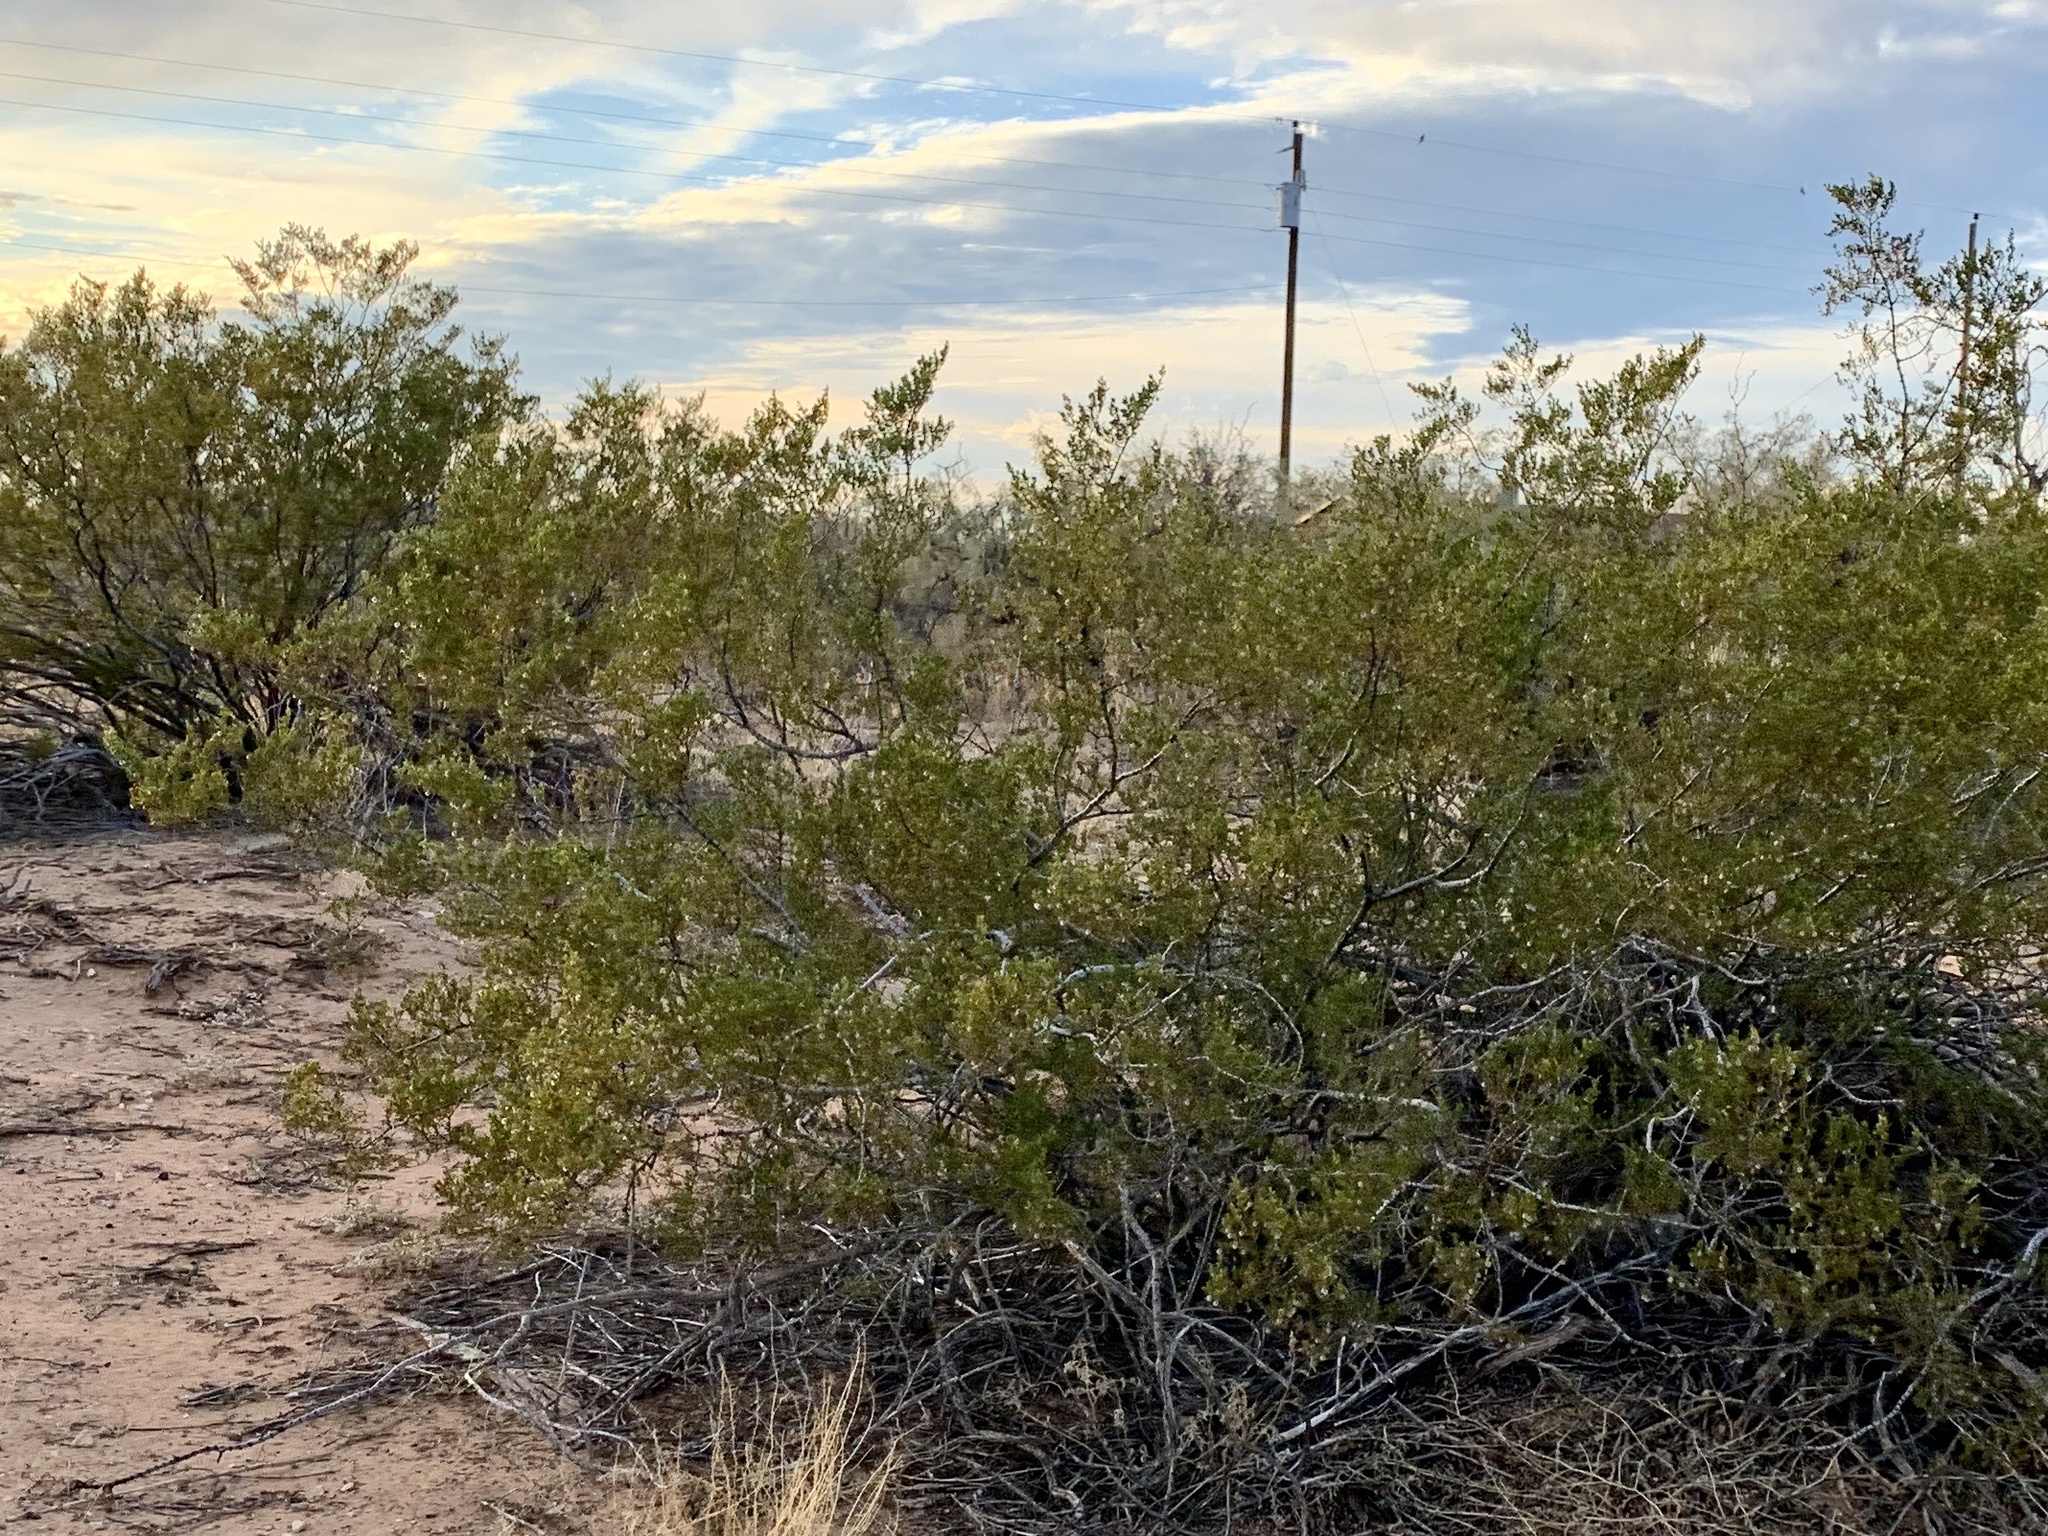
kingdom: Plantae
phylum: Tracheophyta
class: Magnoliopsida
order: Zygophyllales
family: Zygophyllaceae
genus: Larrea
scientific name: Larrea tridentata
